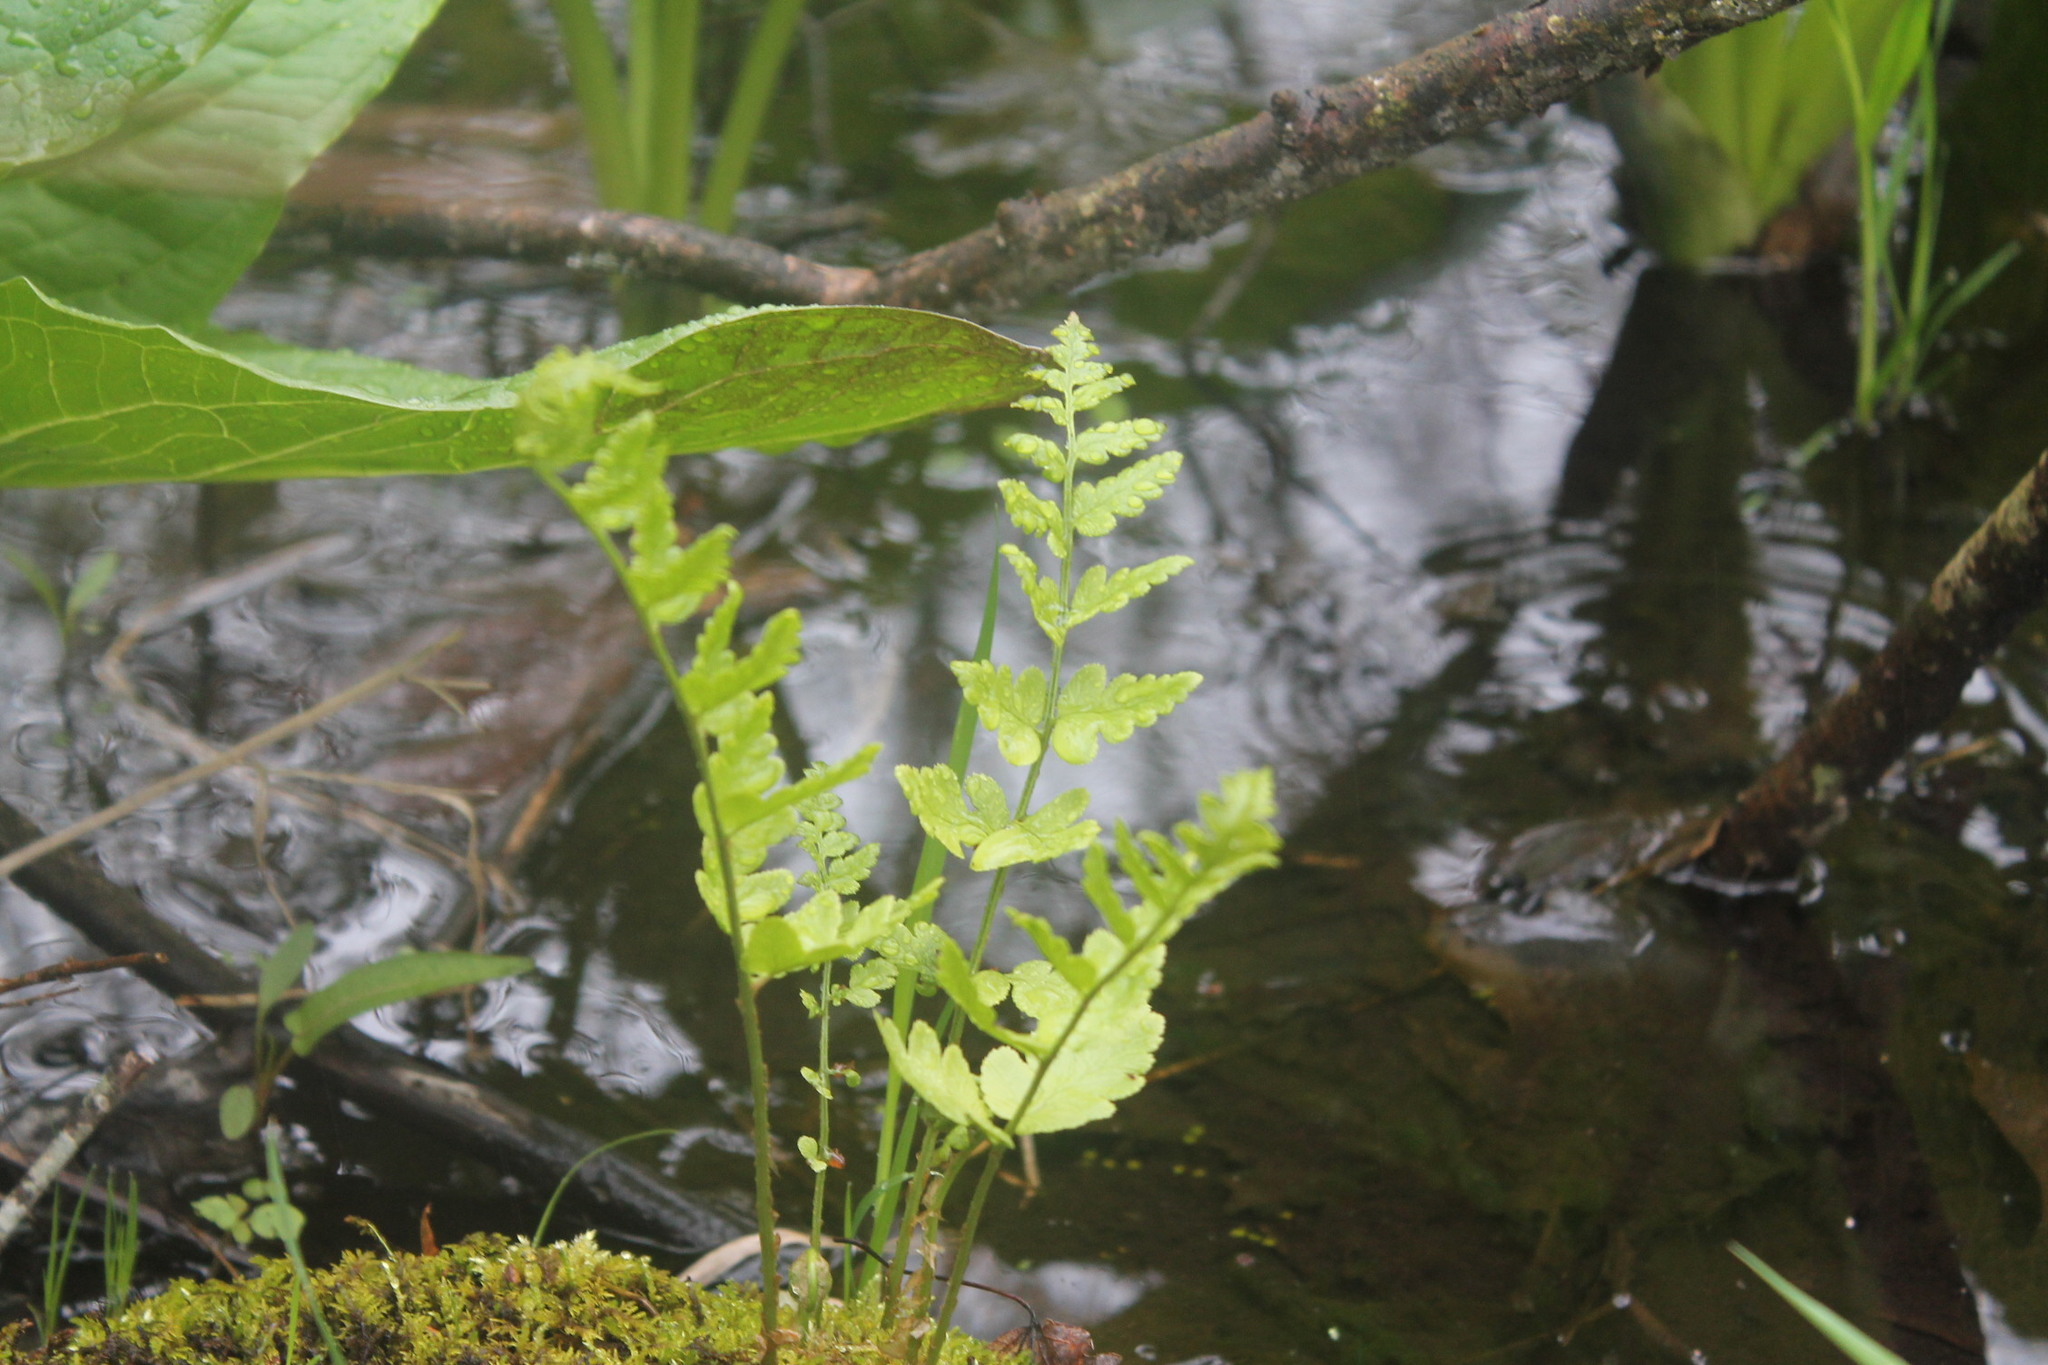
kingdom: Plantae
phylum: Tracheophyta
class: Polypodiopsida
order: Polypodiales
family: Dryopteridaceae
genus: Dryopteris
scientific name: Dryopteris cristata
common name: Crested wood fern
